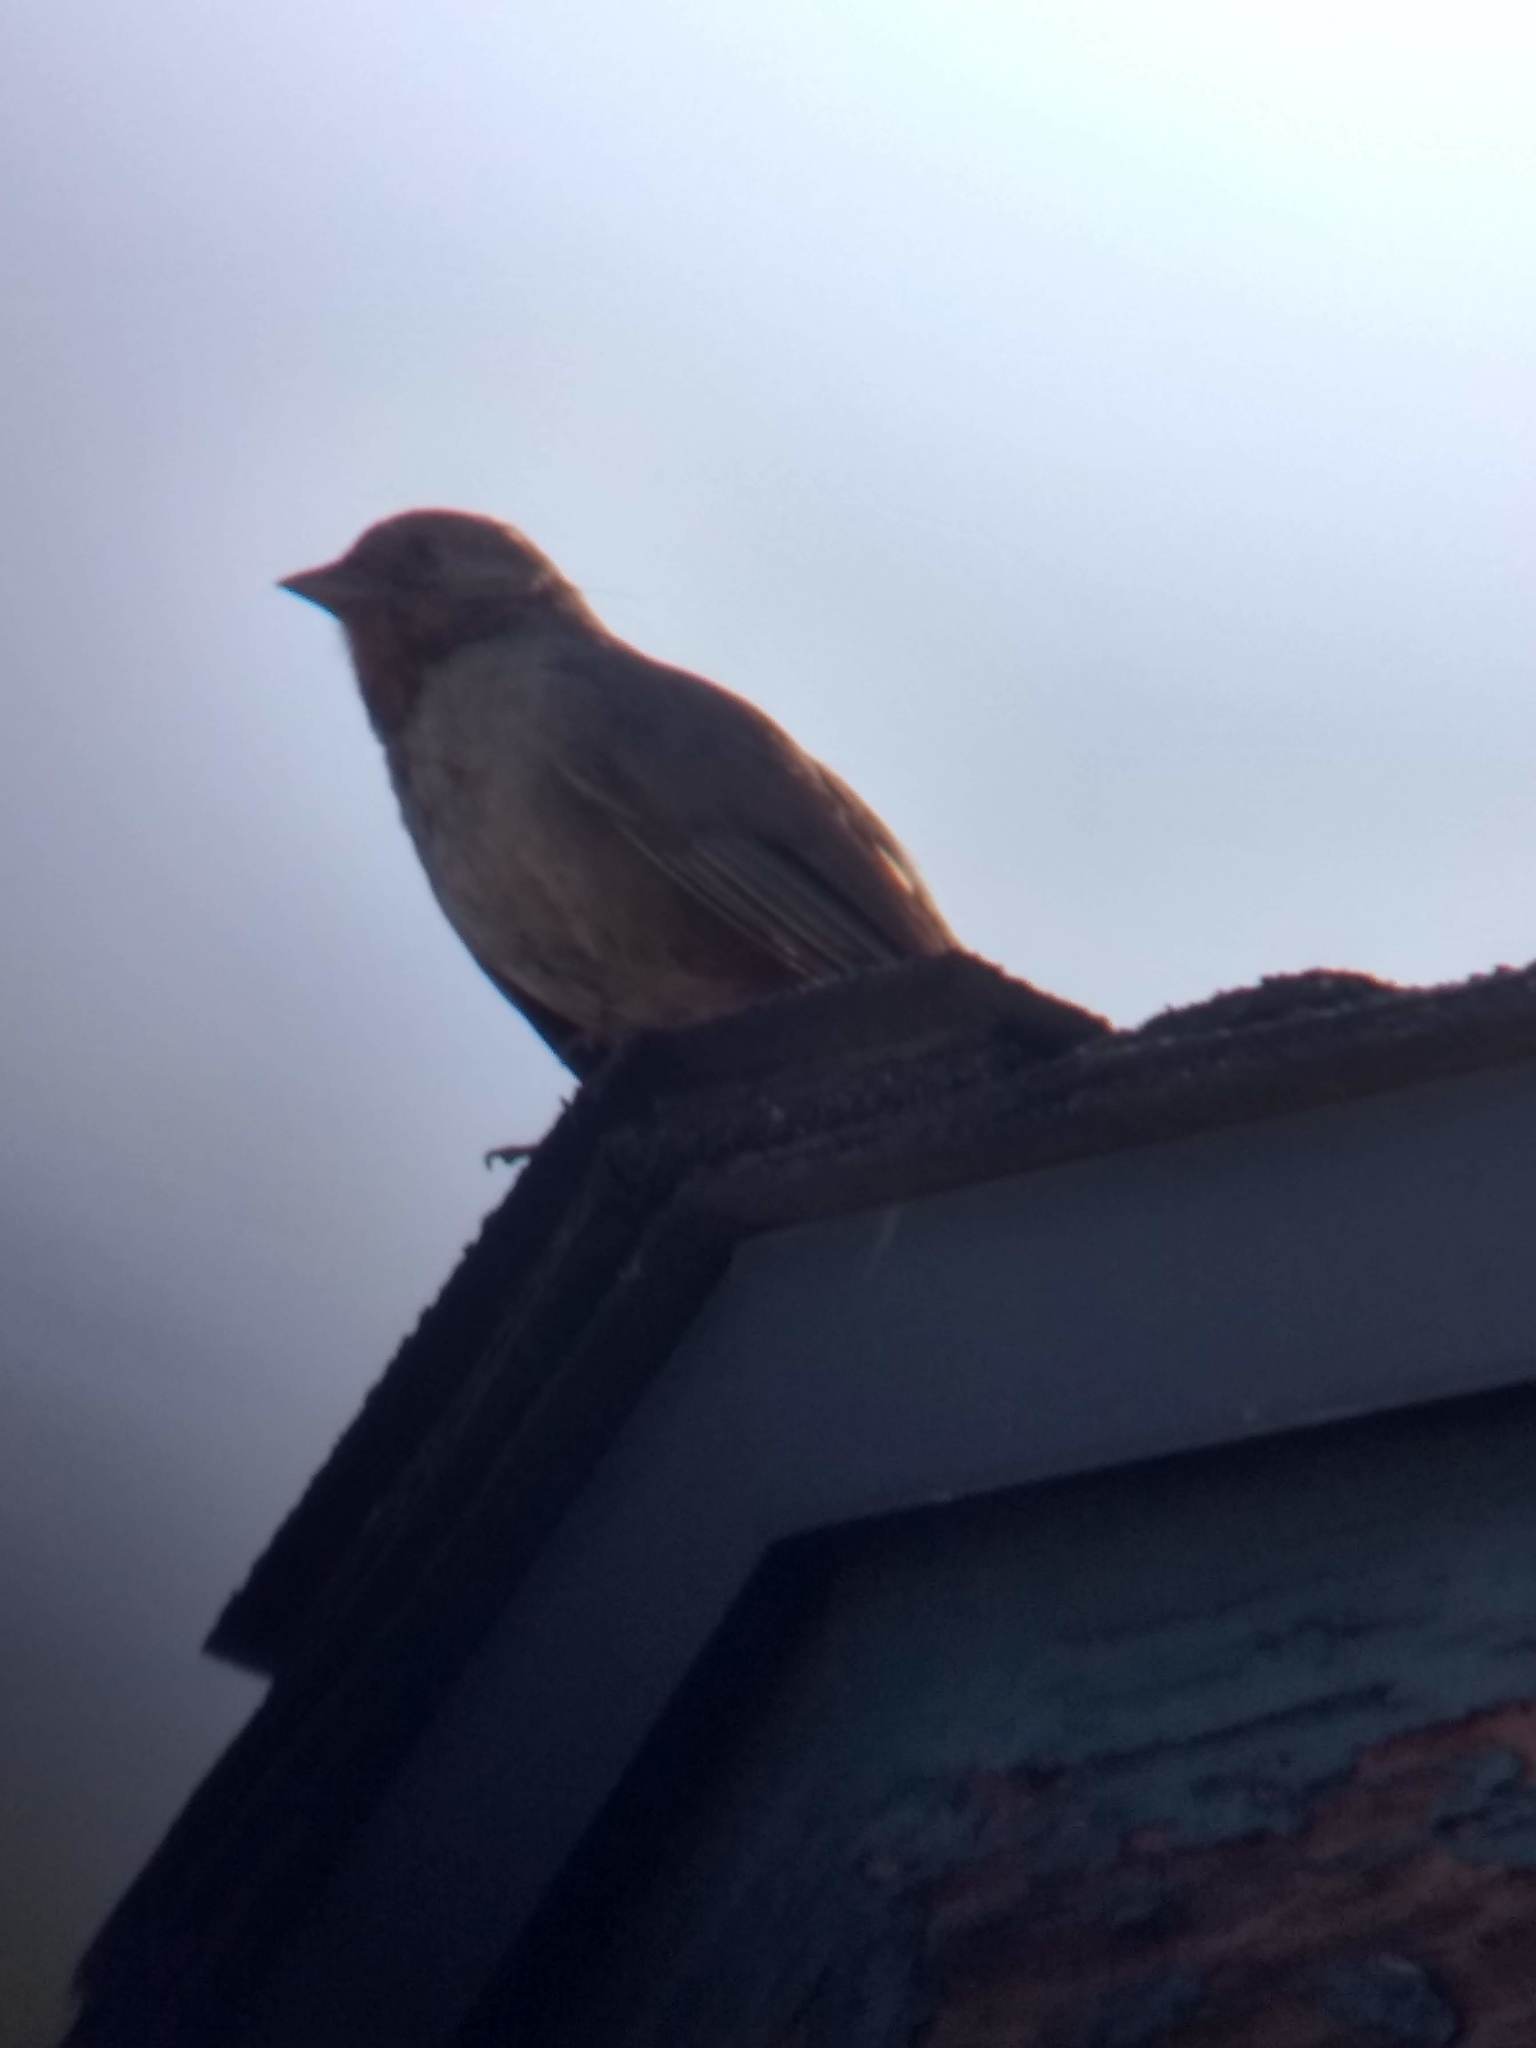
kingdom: Animalia
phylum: Chordata
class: Aves
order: Passeriformes
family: Passerellidae
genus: Melozone
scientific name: Melozone crissalis
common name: California towhee
